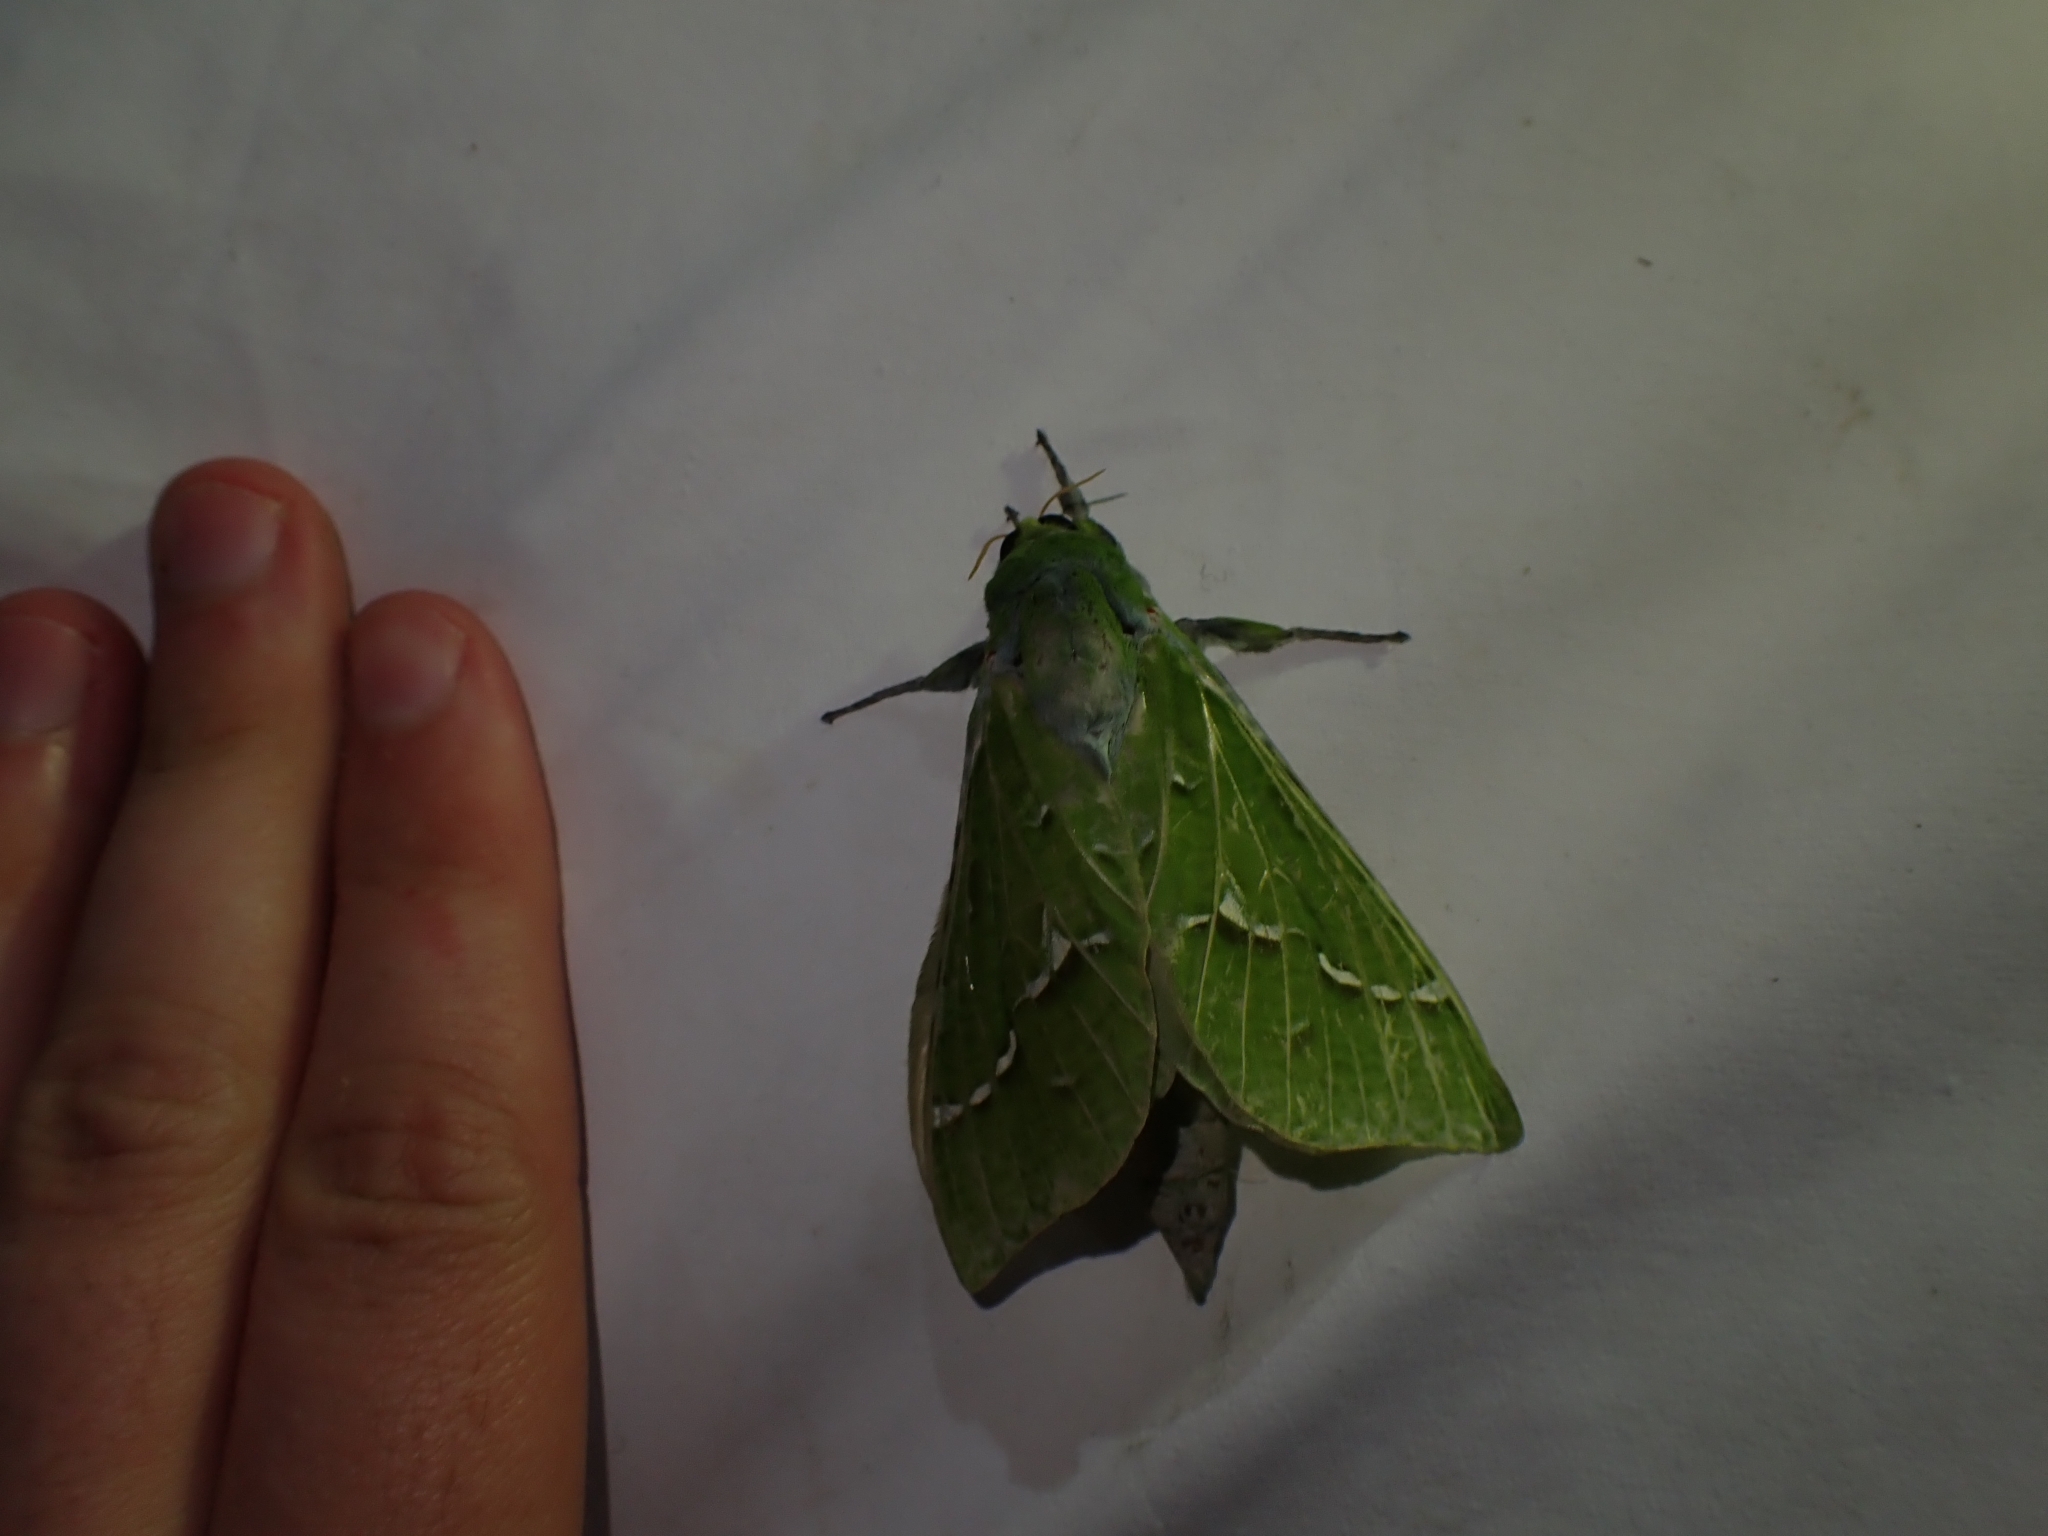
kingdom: Animalia
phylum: Arthropoda
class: Insecta
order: Lepidoptera
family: Hepialidae
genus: Aenetus
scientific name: Aenetus virescens
